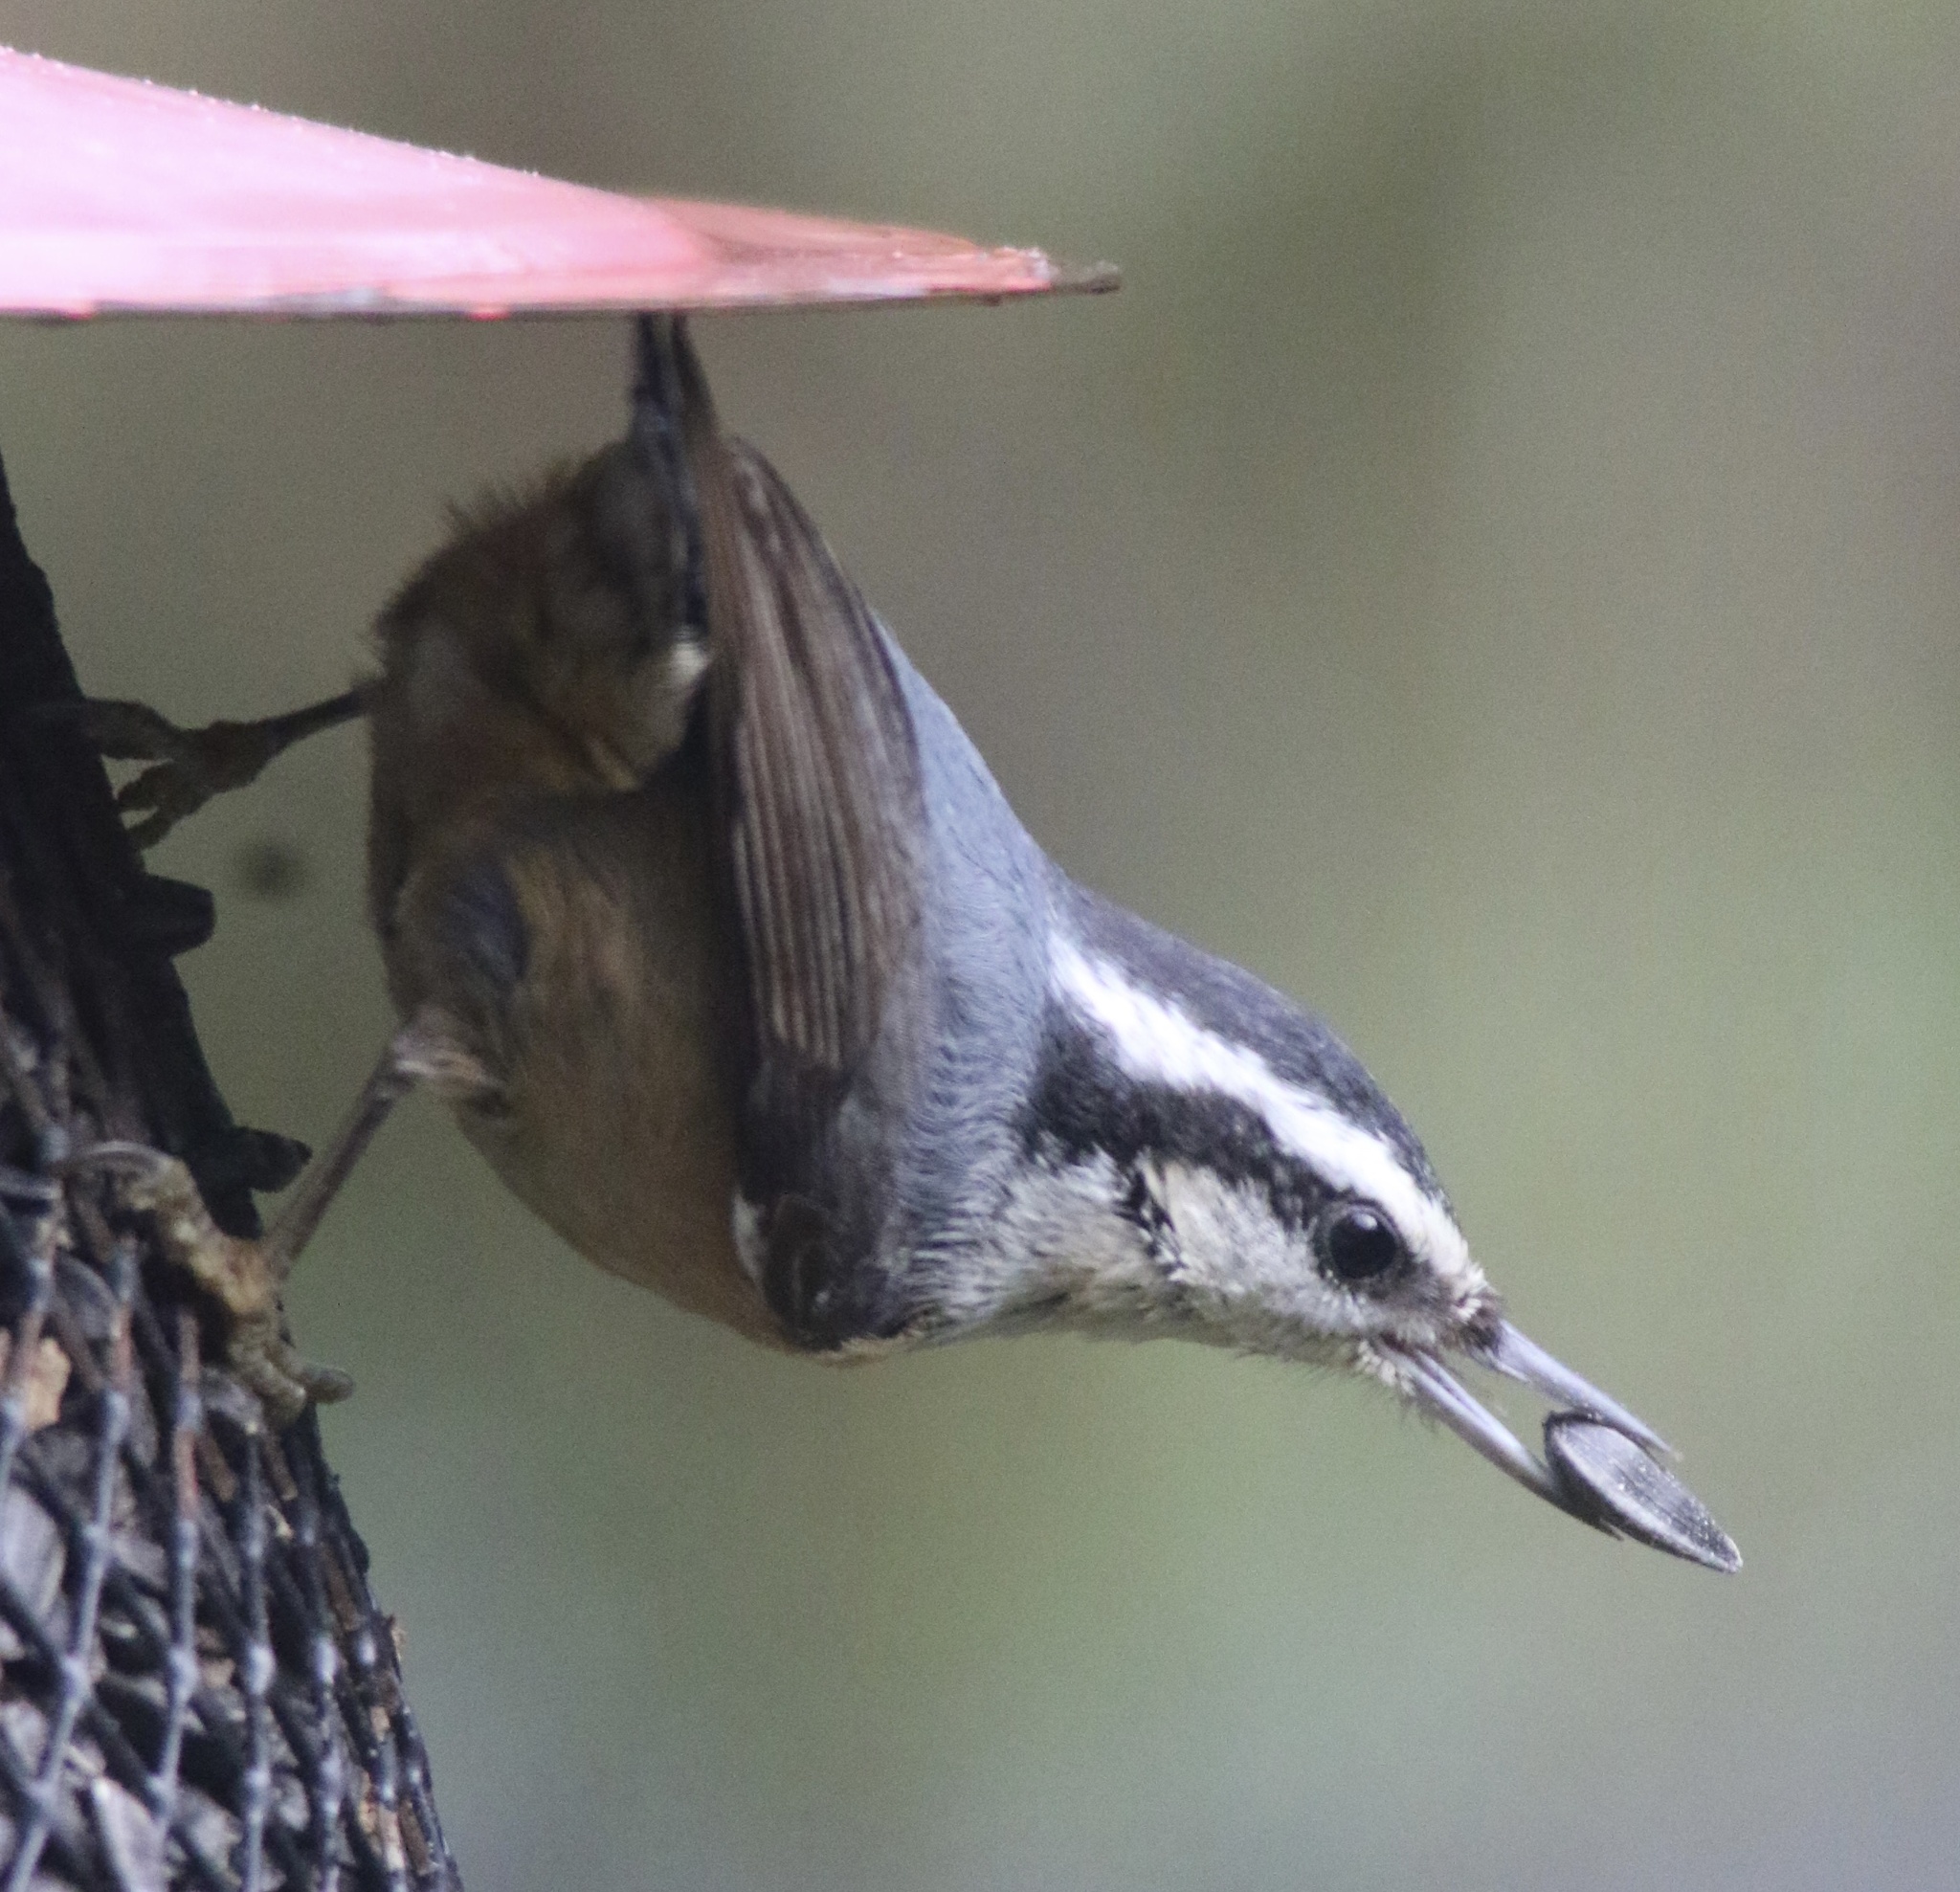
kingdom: Animalia
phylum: Chordata
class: Aves
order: Passeriformes
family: Sittidae
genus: Sitta
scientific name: Sitta canadensis
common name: Red-breasted nuthatch
